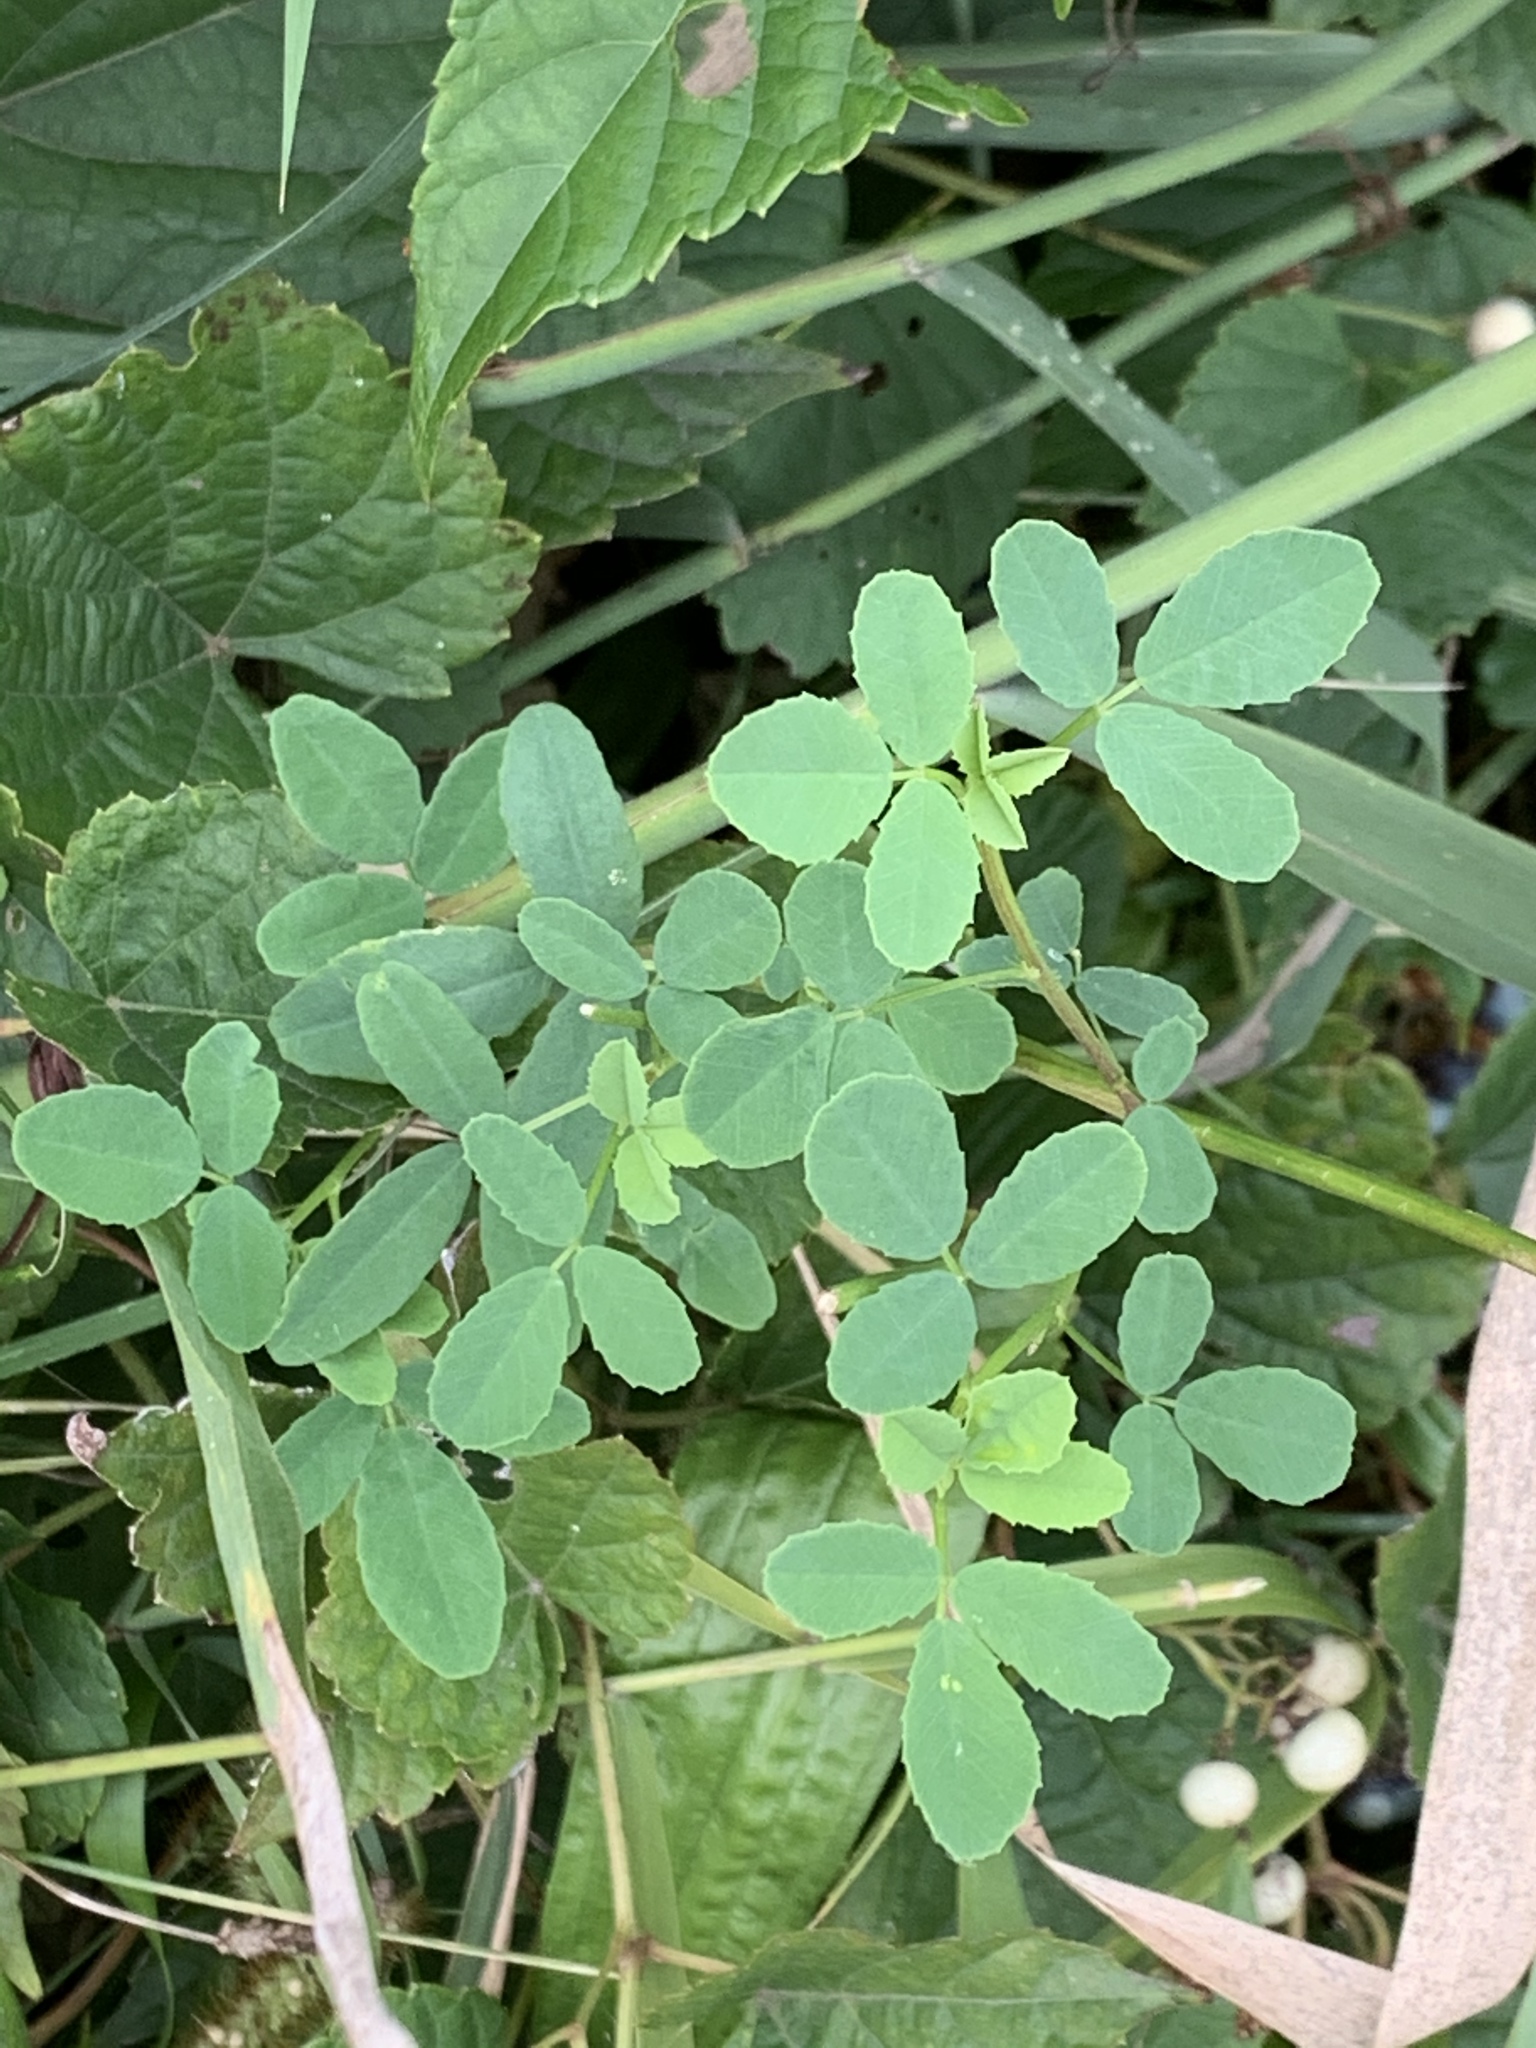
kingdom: Plantae
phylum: Tracheophyta
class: Magnoliopsida
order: Fabales
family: Fabaceae
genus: Melilotus
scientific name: Melilotus
